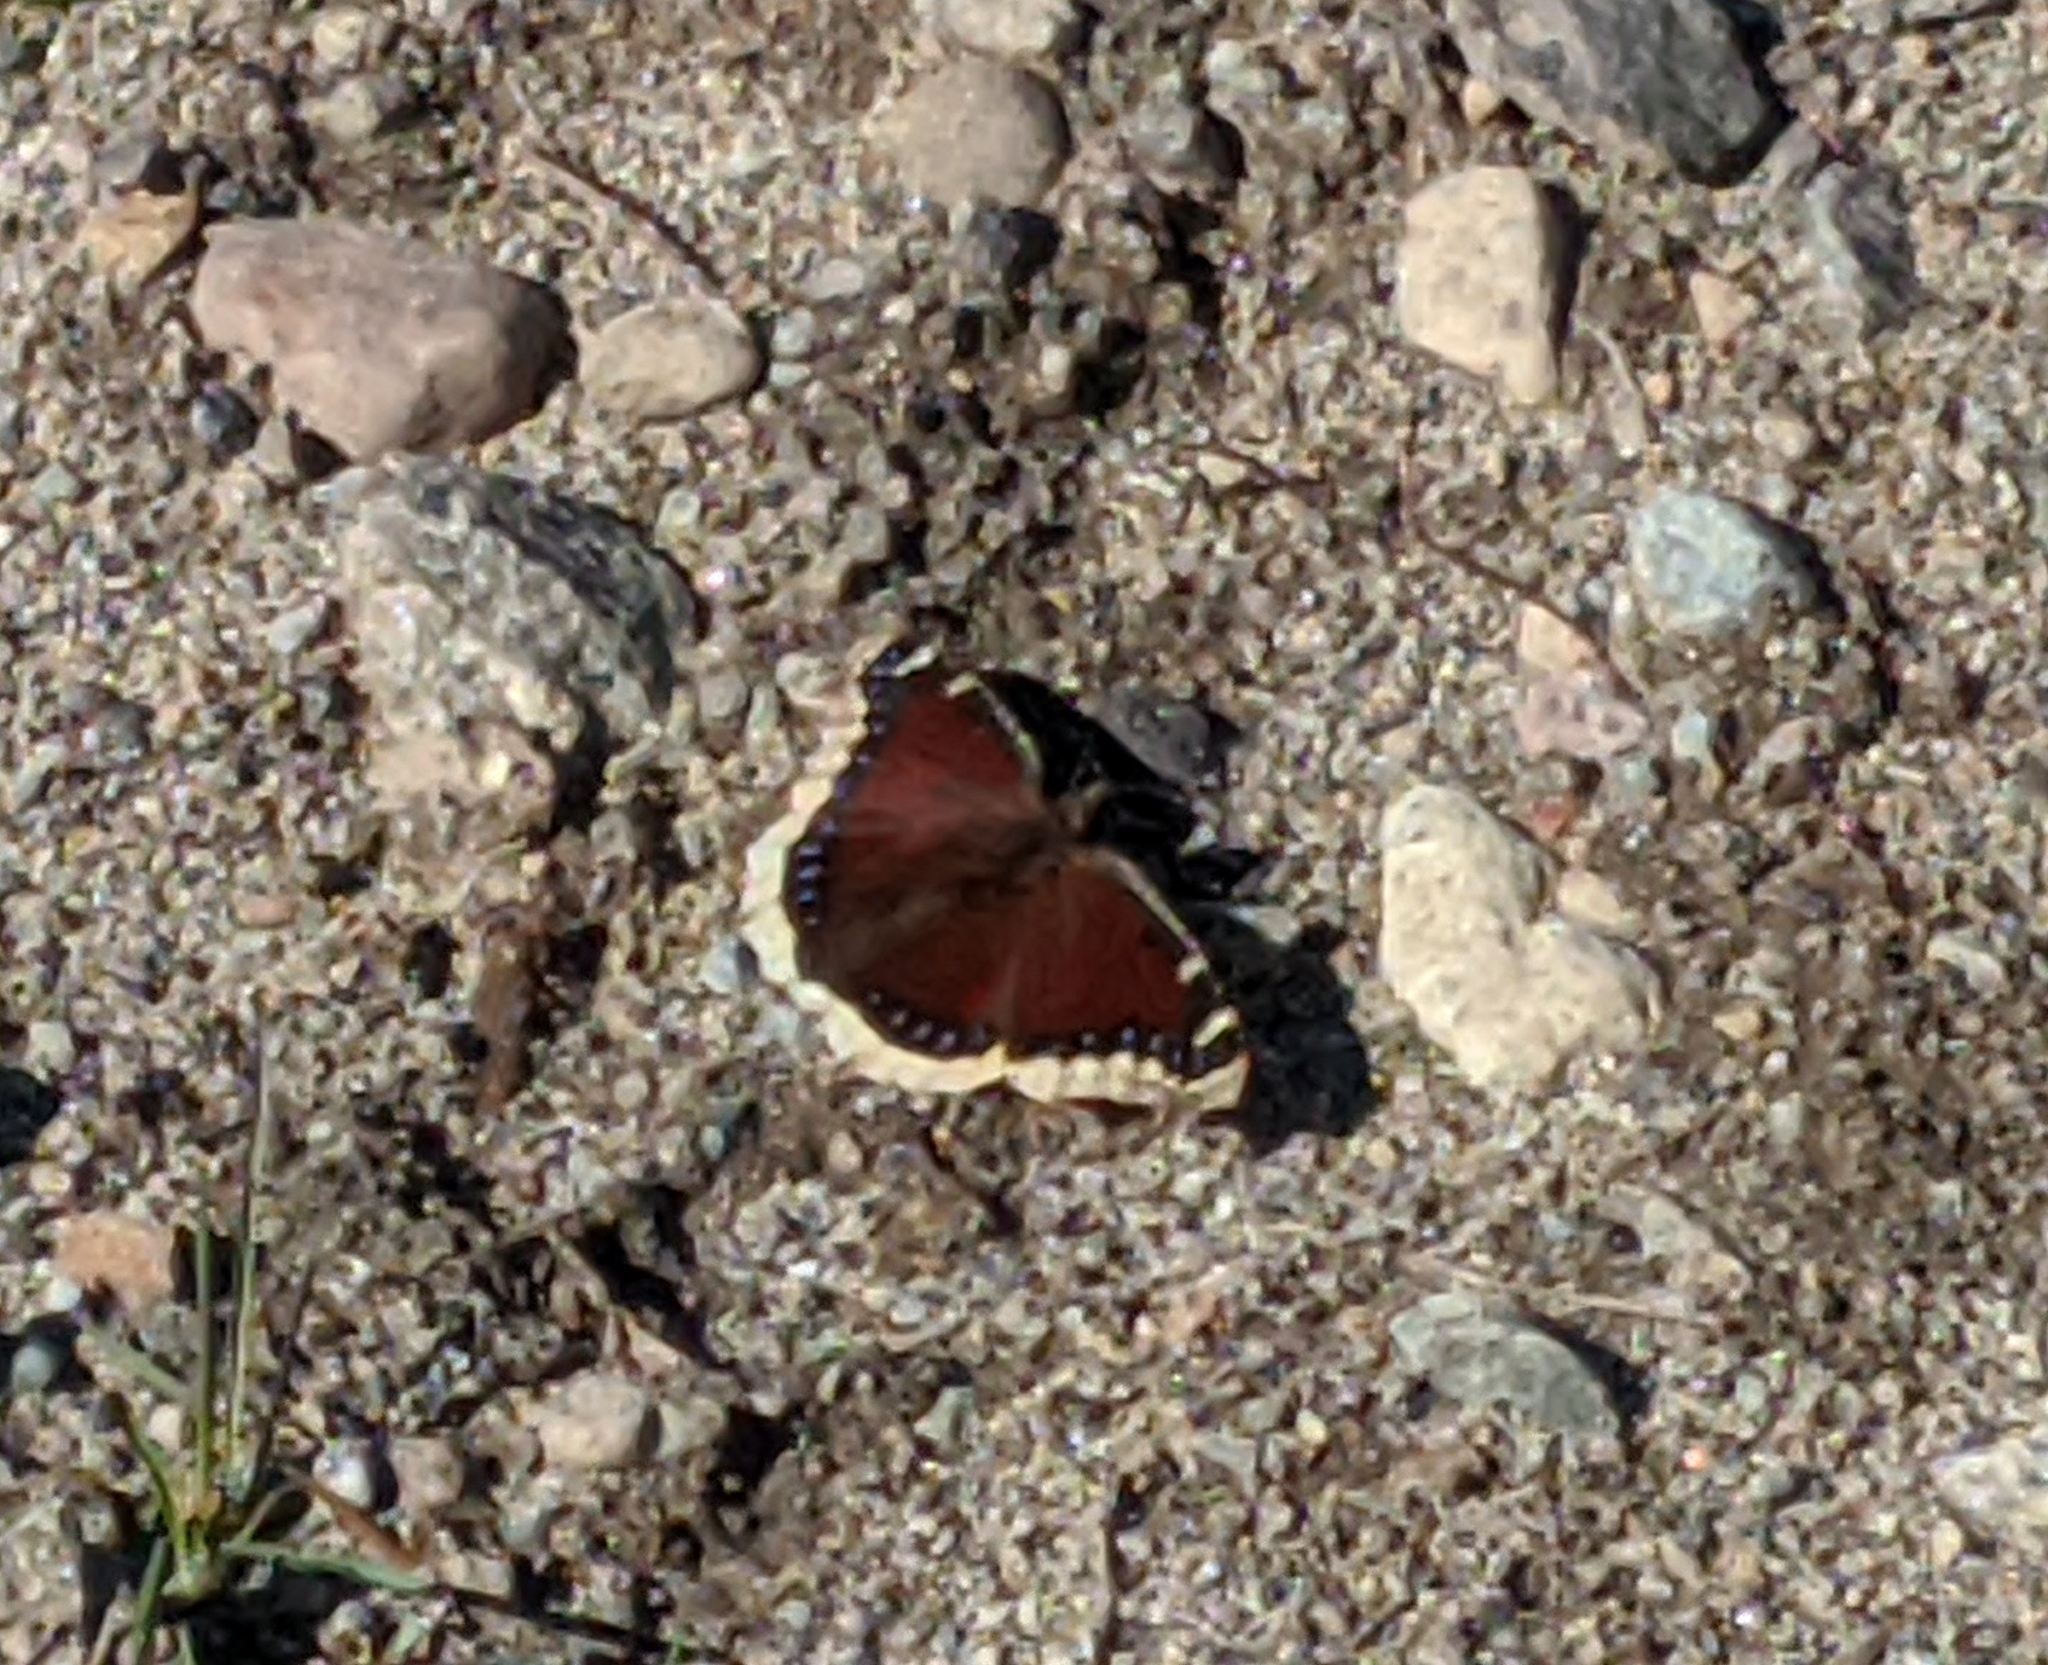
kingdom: Animalia
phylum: Arthropoda
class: Insecta
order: Lepidoptera
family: Nymphalidae
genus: Nymphalis
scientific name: Nymphalis antiopa
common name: Camberwell beauty
